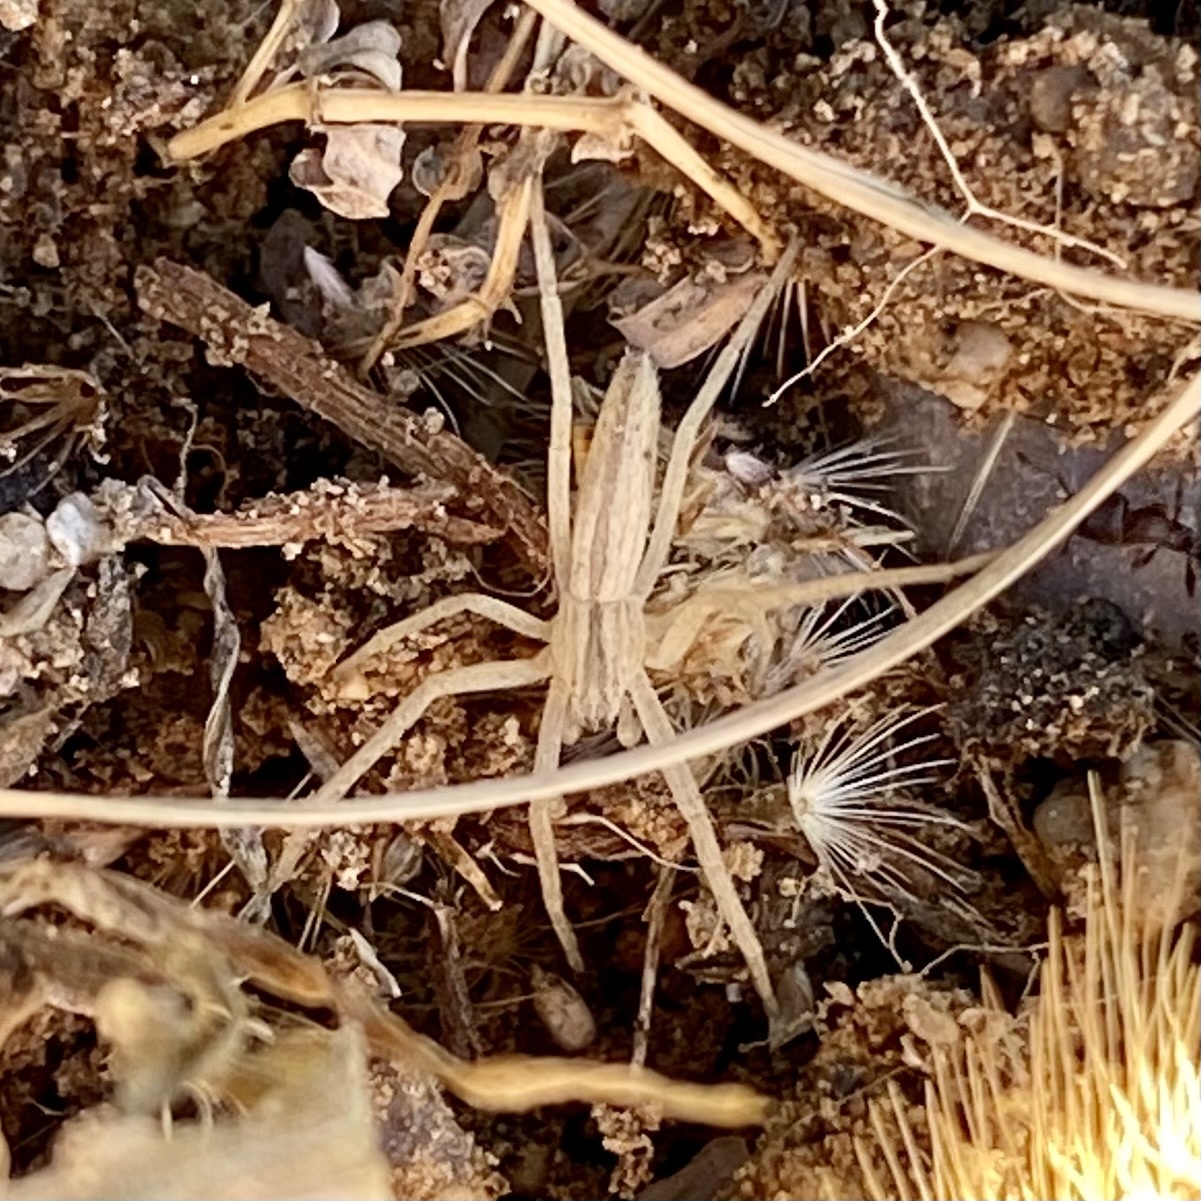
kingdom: Animalia
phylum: Arthropoda
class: Arachnida
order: Araneae
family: Philodromidae
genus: Tibellus
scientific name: Tibellus
